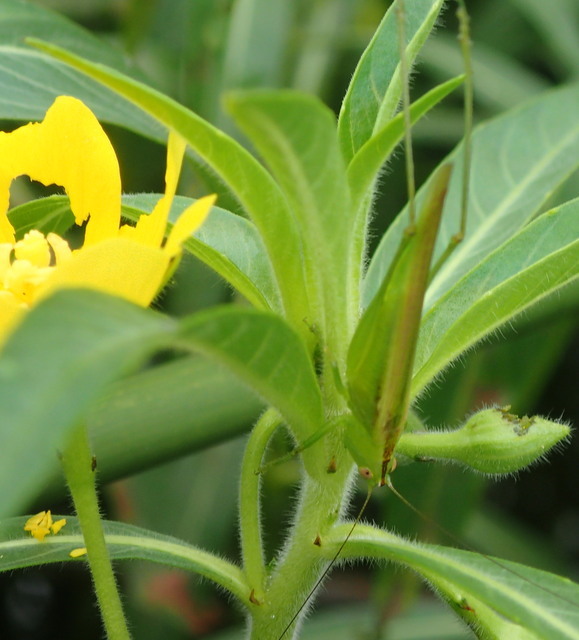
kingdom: Animalia
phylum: Arthropoda
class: Insecta
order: Orthoptera
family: Tettigoniidae
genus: Conocephalus
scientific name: Conocephalus fasciatus
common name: Slender meadow katydid
